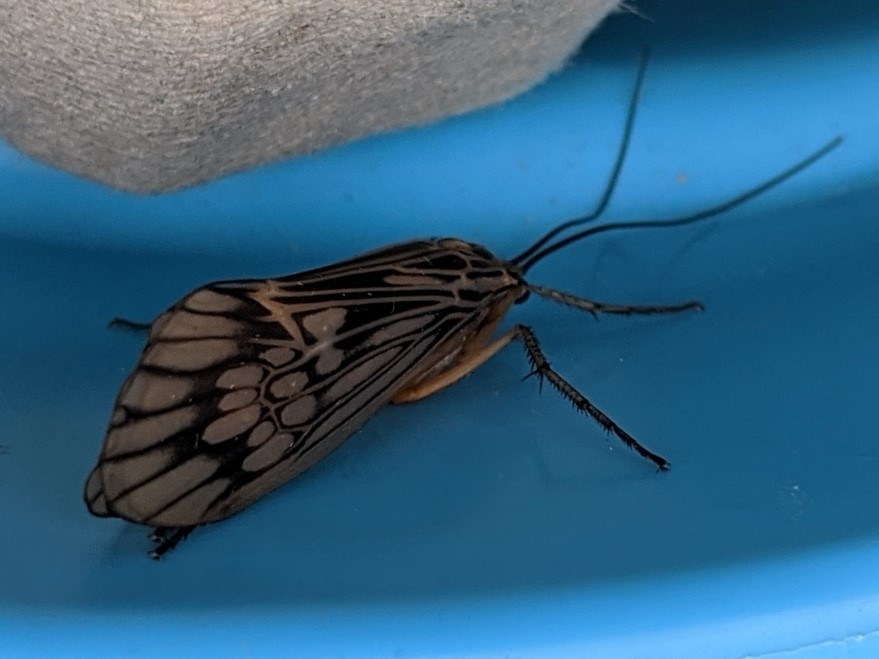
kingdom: Animalia
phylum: Arthropoda
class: Insecta
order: Trichoptera
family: Limnephilidae
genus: Hydatophylax
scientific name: Hydatophylax argus
